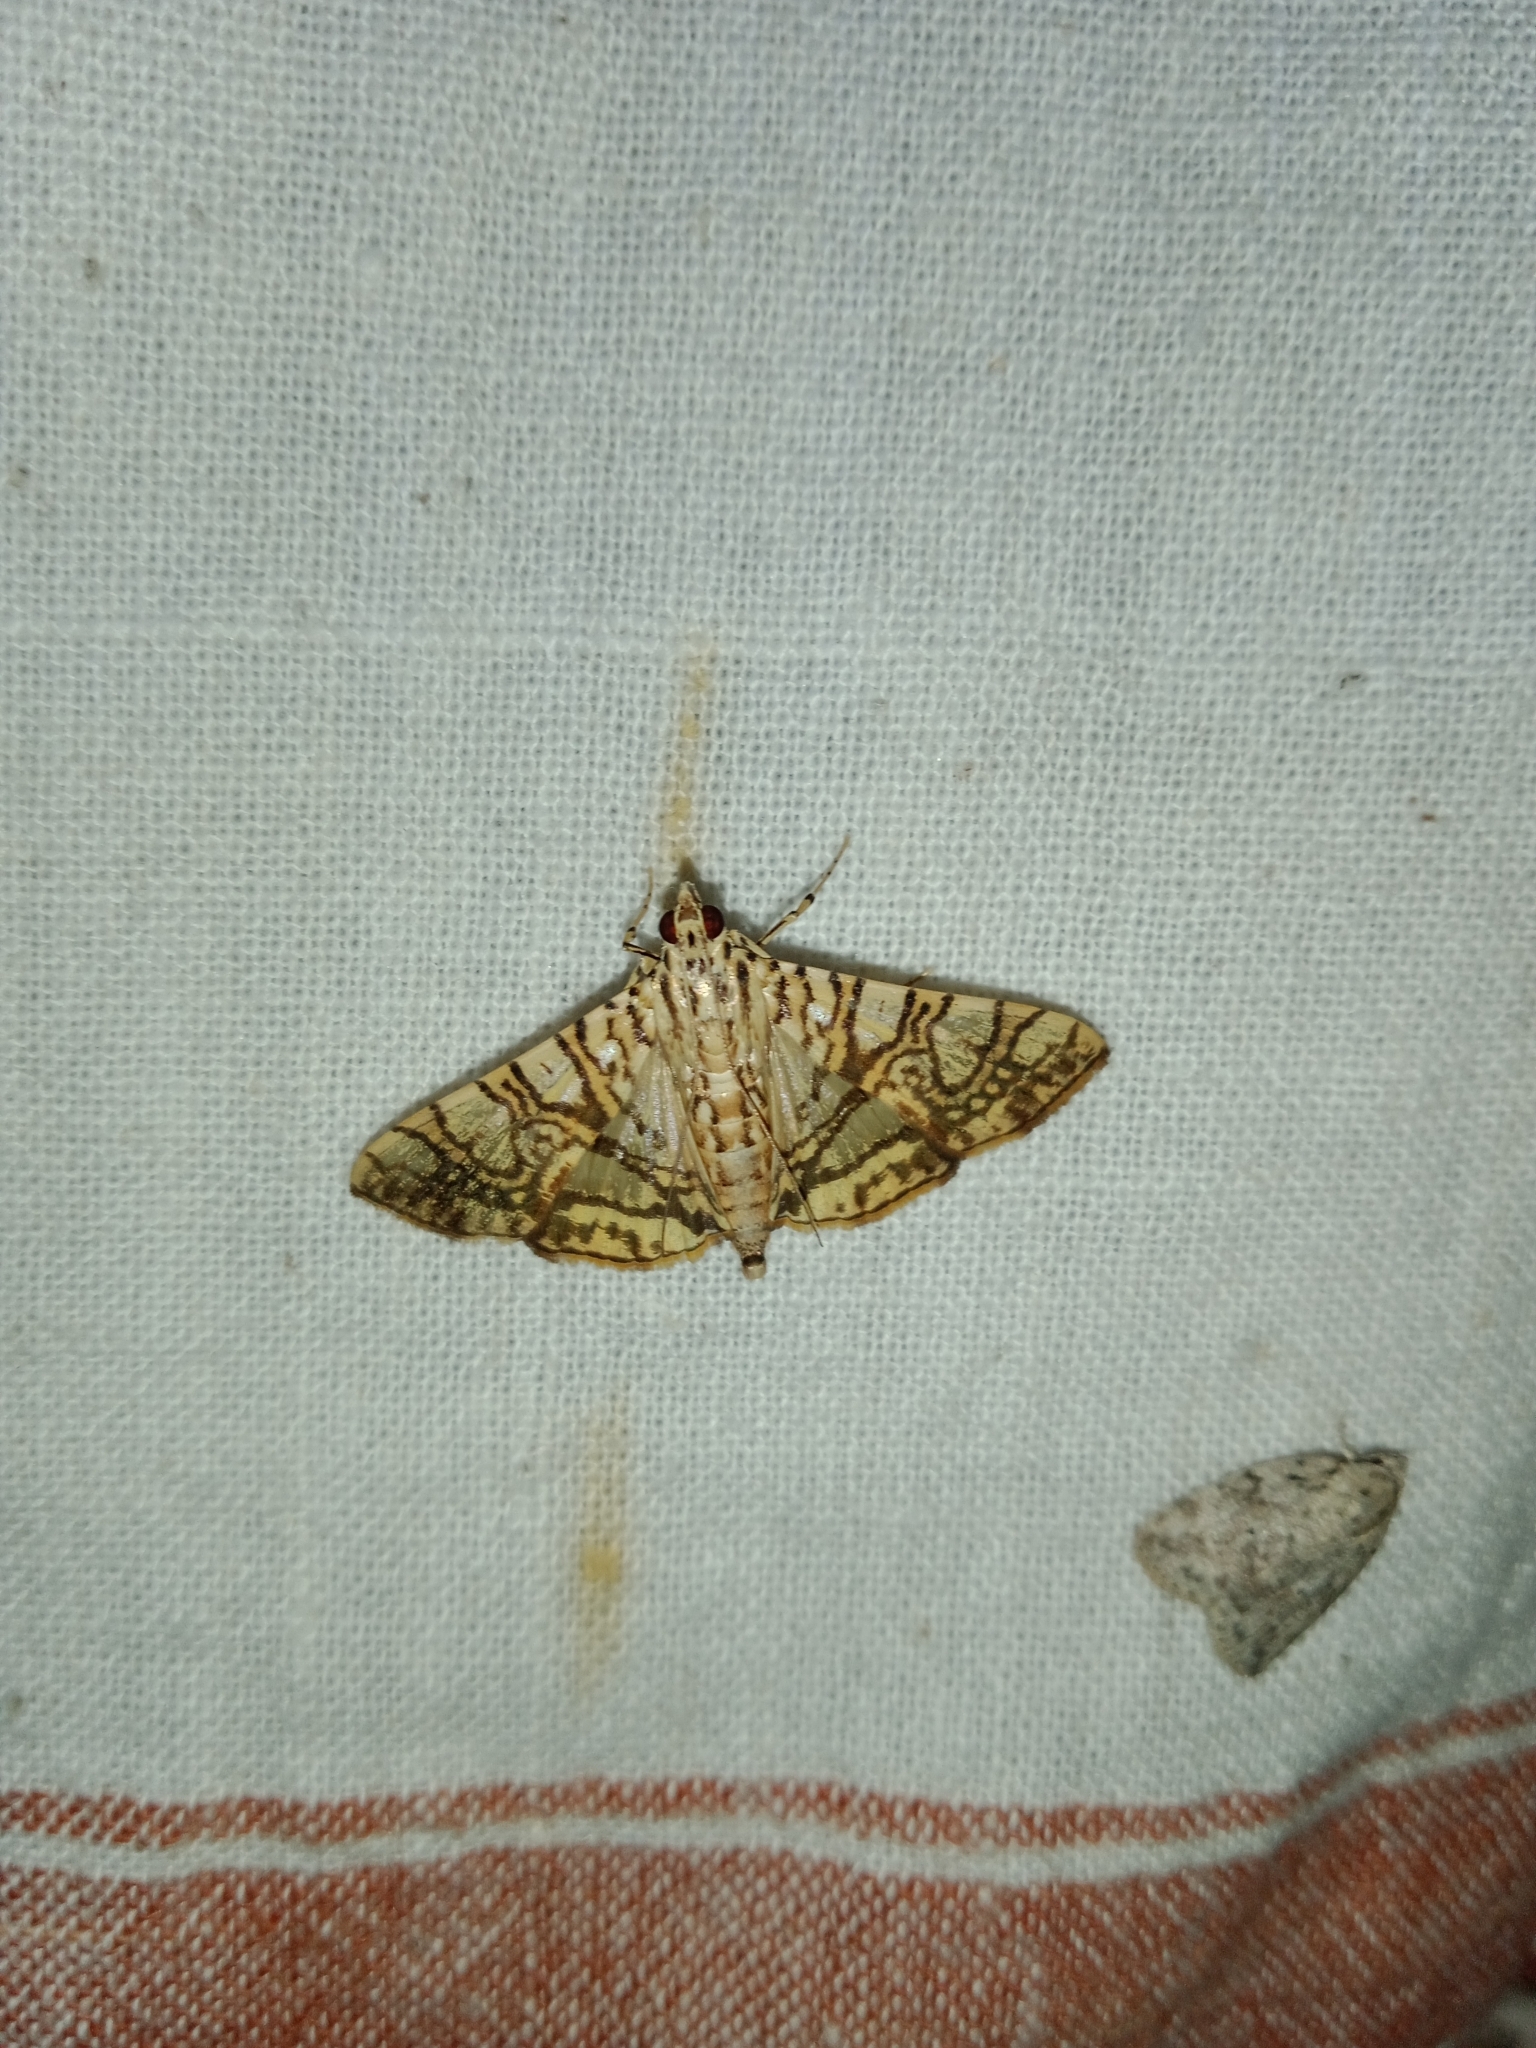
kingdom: Animalia
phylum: Arthropoda
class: Insecta
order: Lepidoptera
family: Crambidae
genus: Glyphodes
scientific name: Glyphodes caesalis
